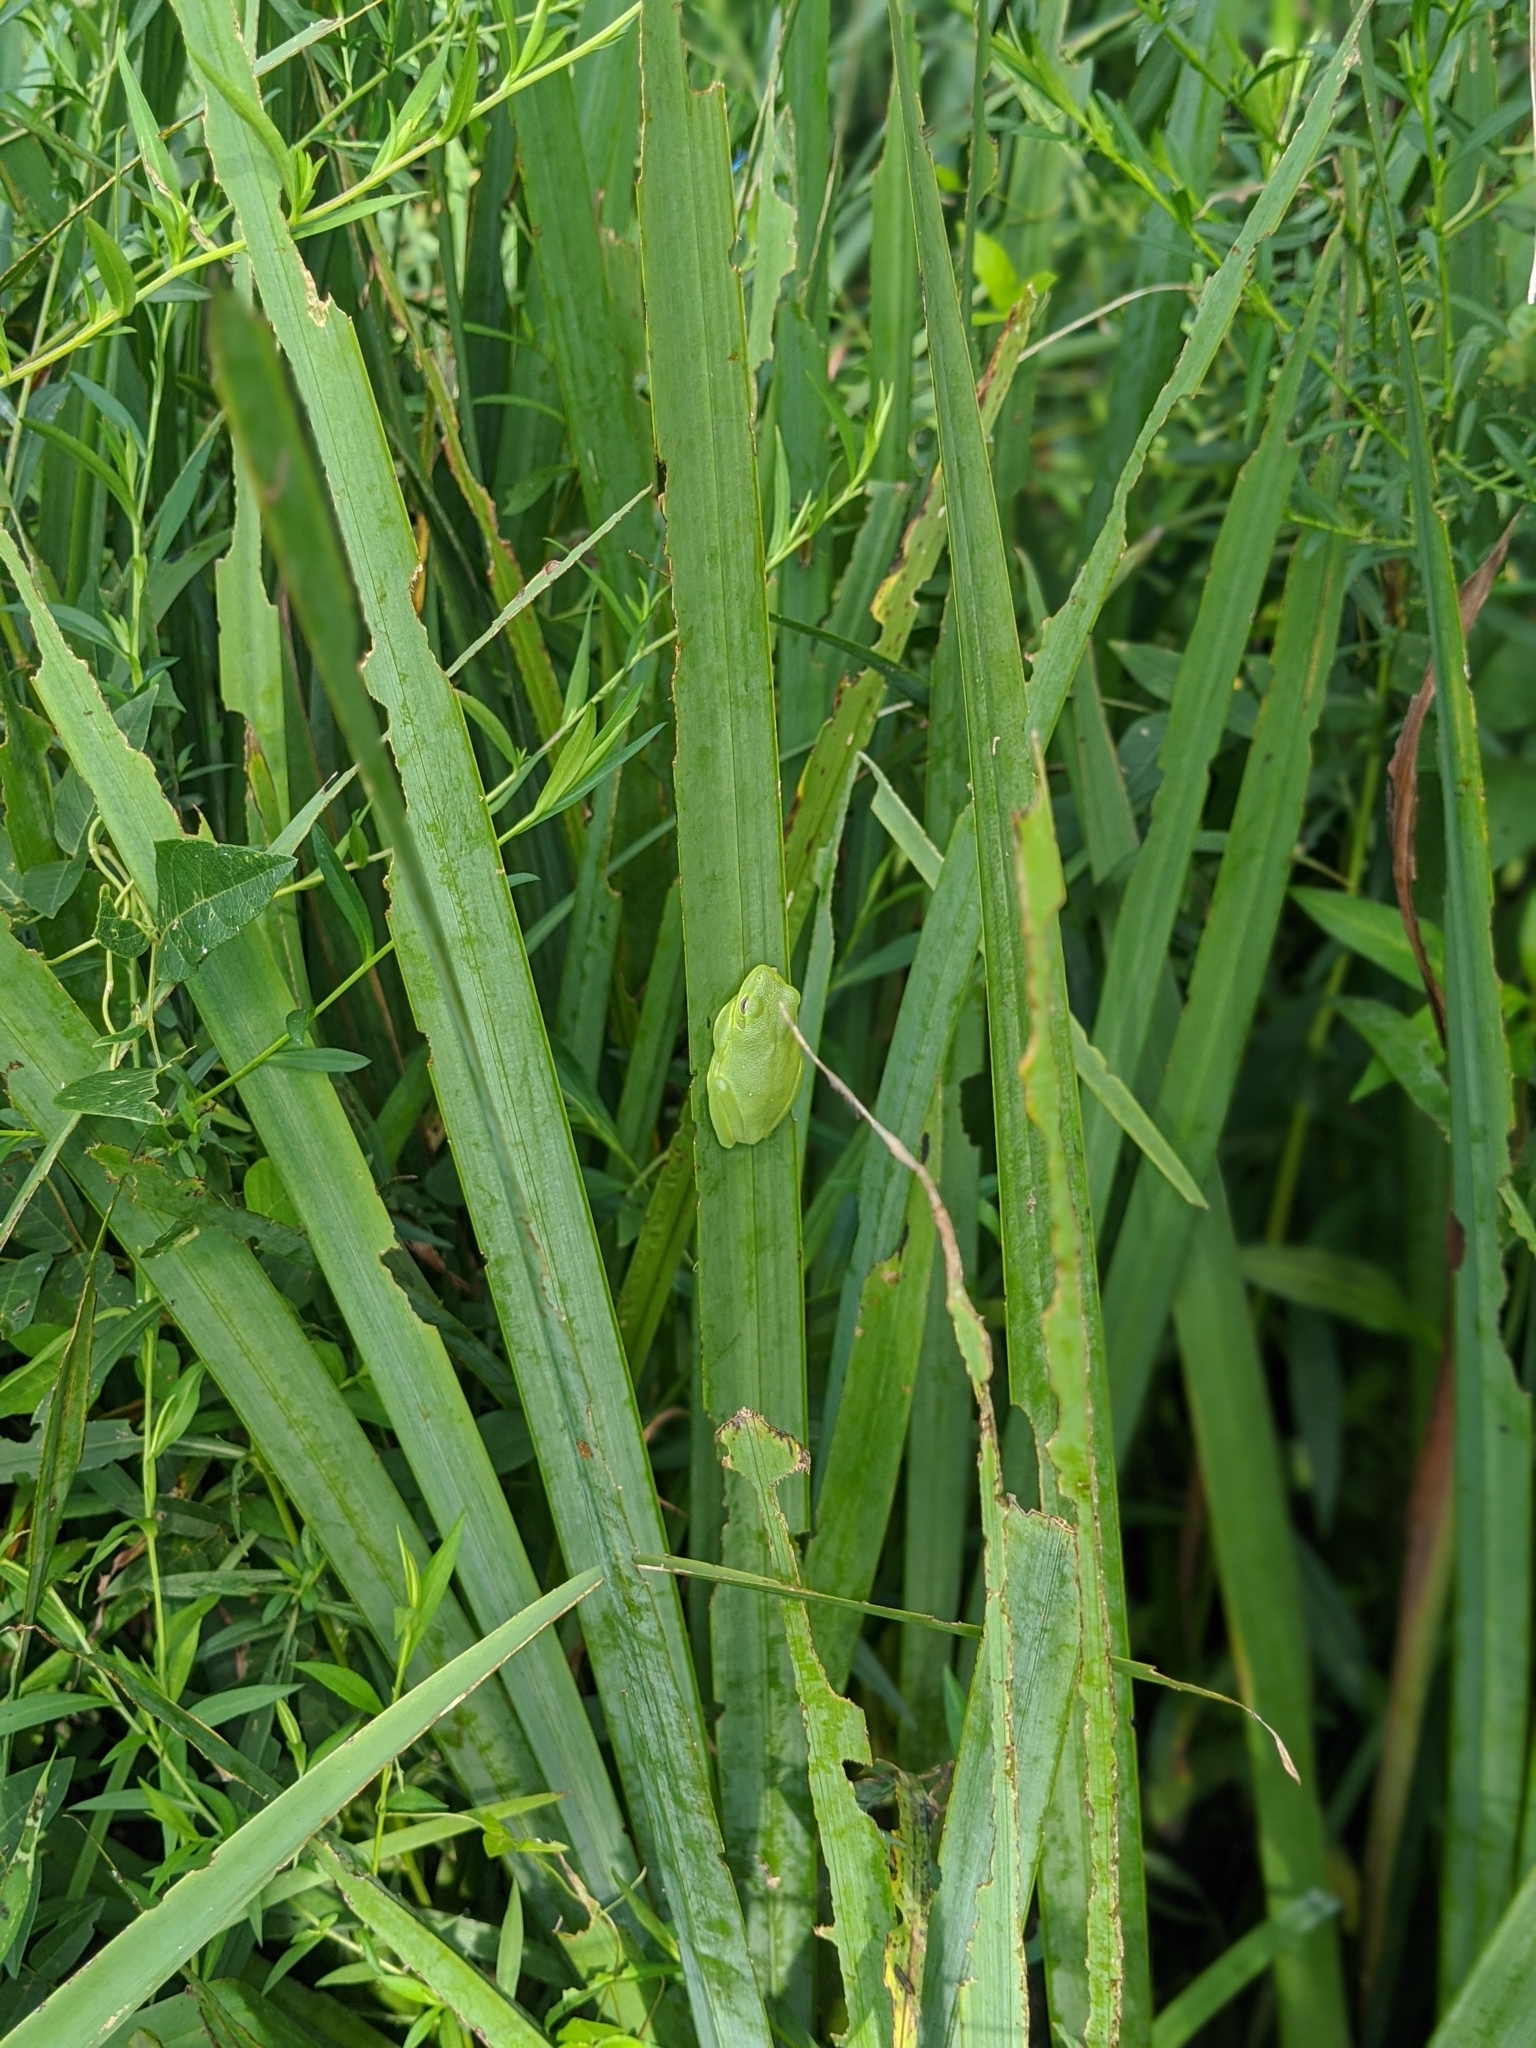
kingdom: Animalia
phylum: Chordata
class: Amphibia
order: Anura
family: Hylidae
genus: Dryophytes
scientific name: Dryophytes cinereus
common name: Green treefrog
